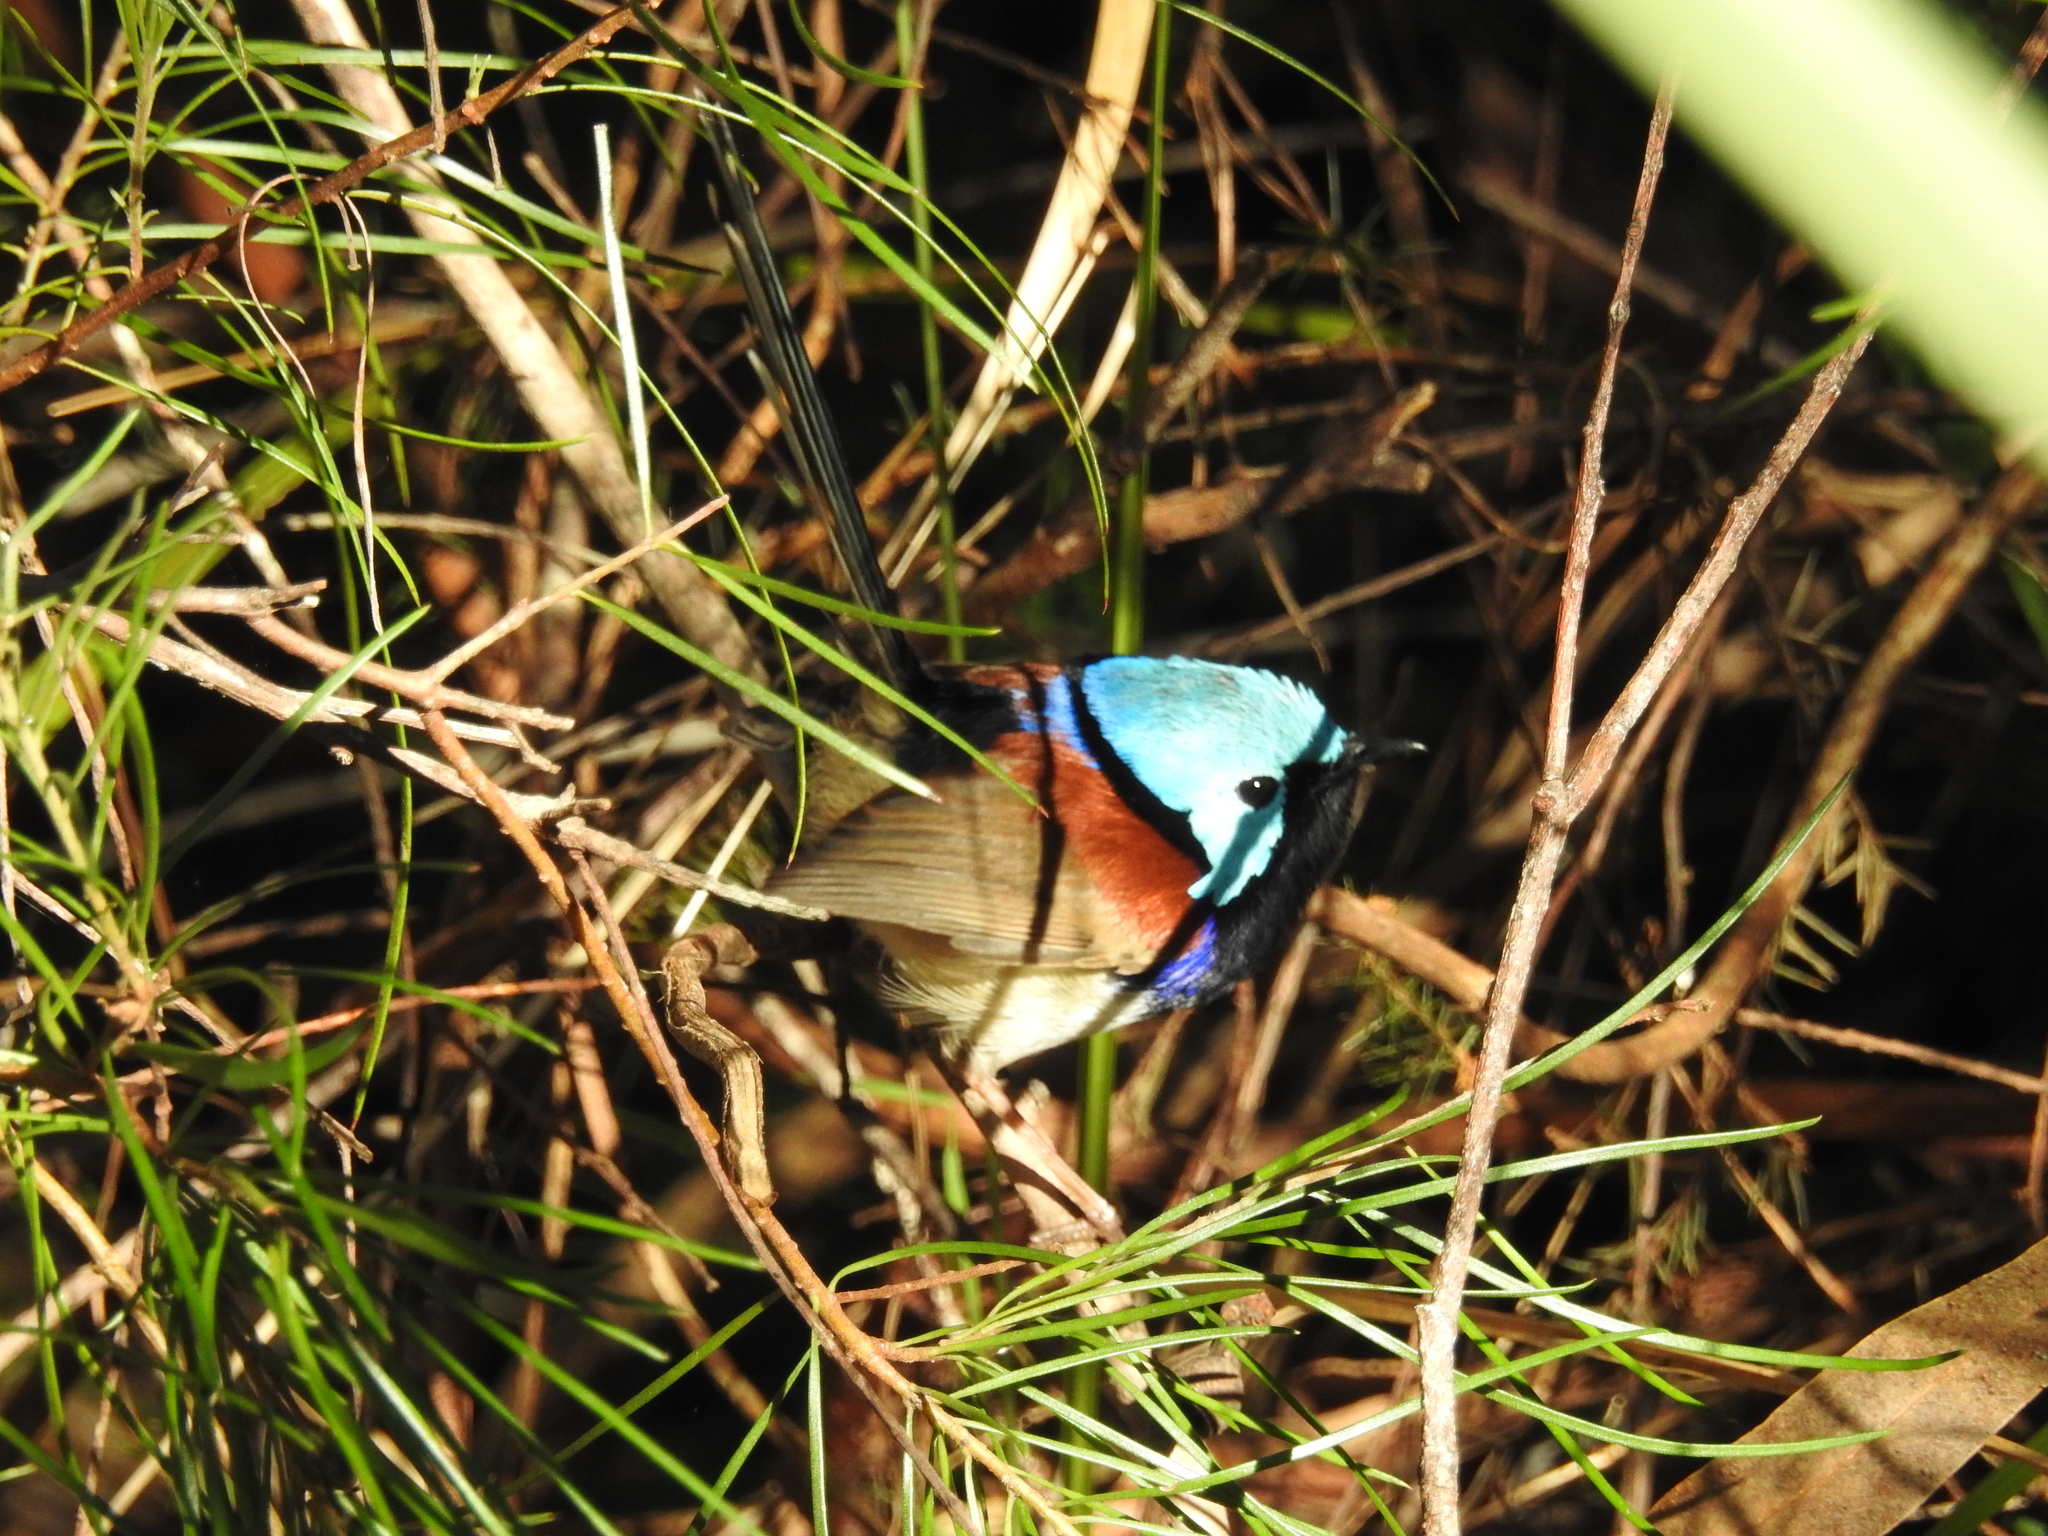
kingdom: Animalia
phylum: Chordata
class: Aves
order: Passeriformes
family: Maluridae
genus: Malurus
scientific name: Malurus lamberti
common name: Variegated fairywren
